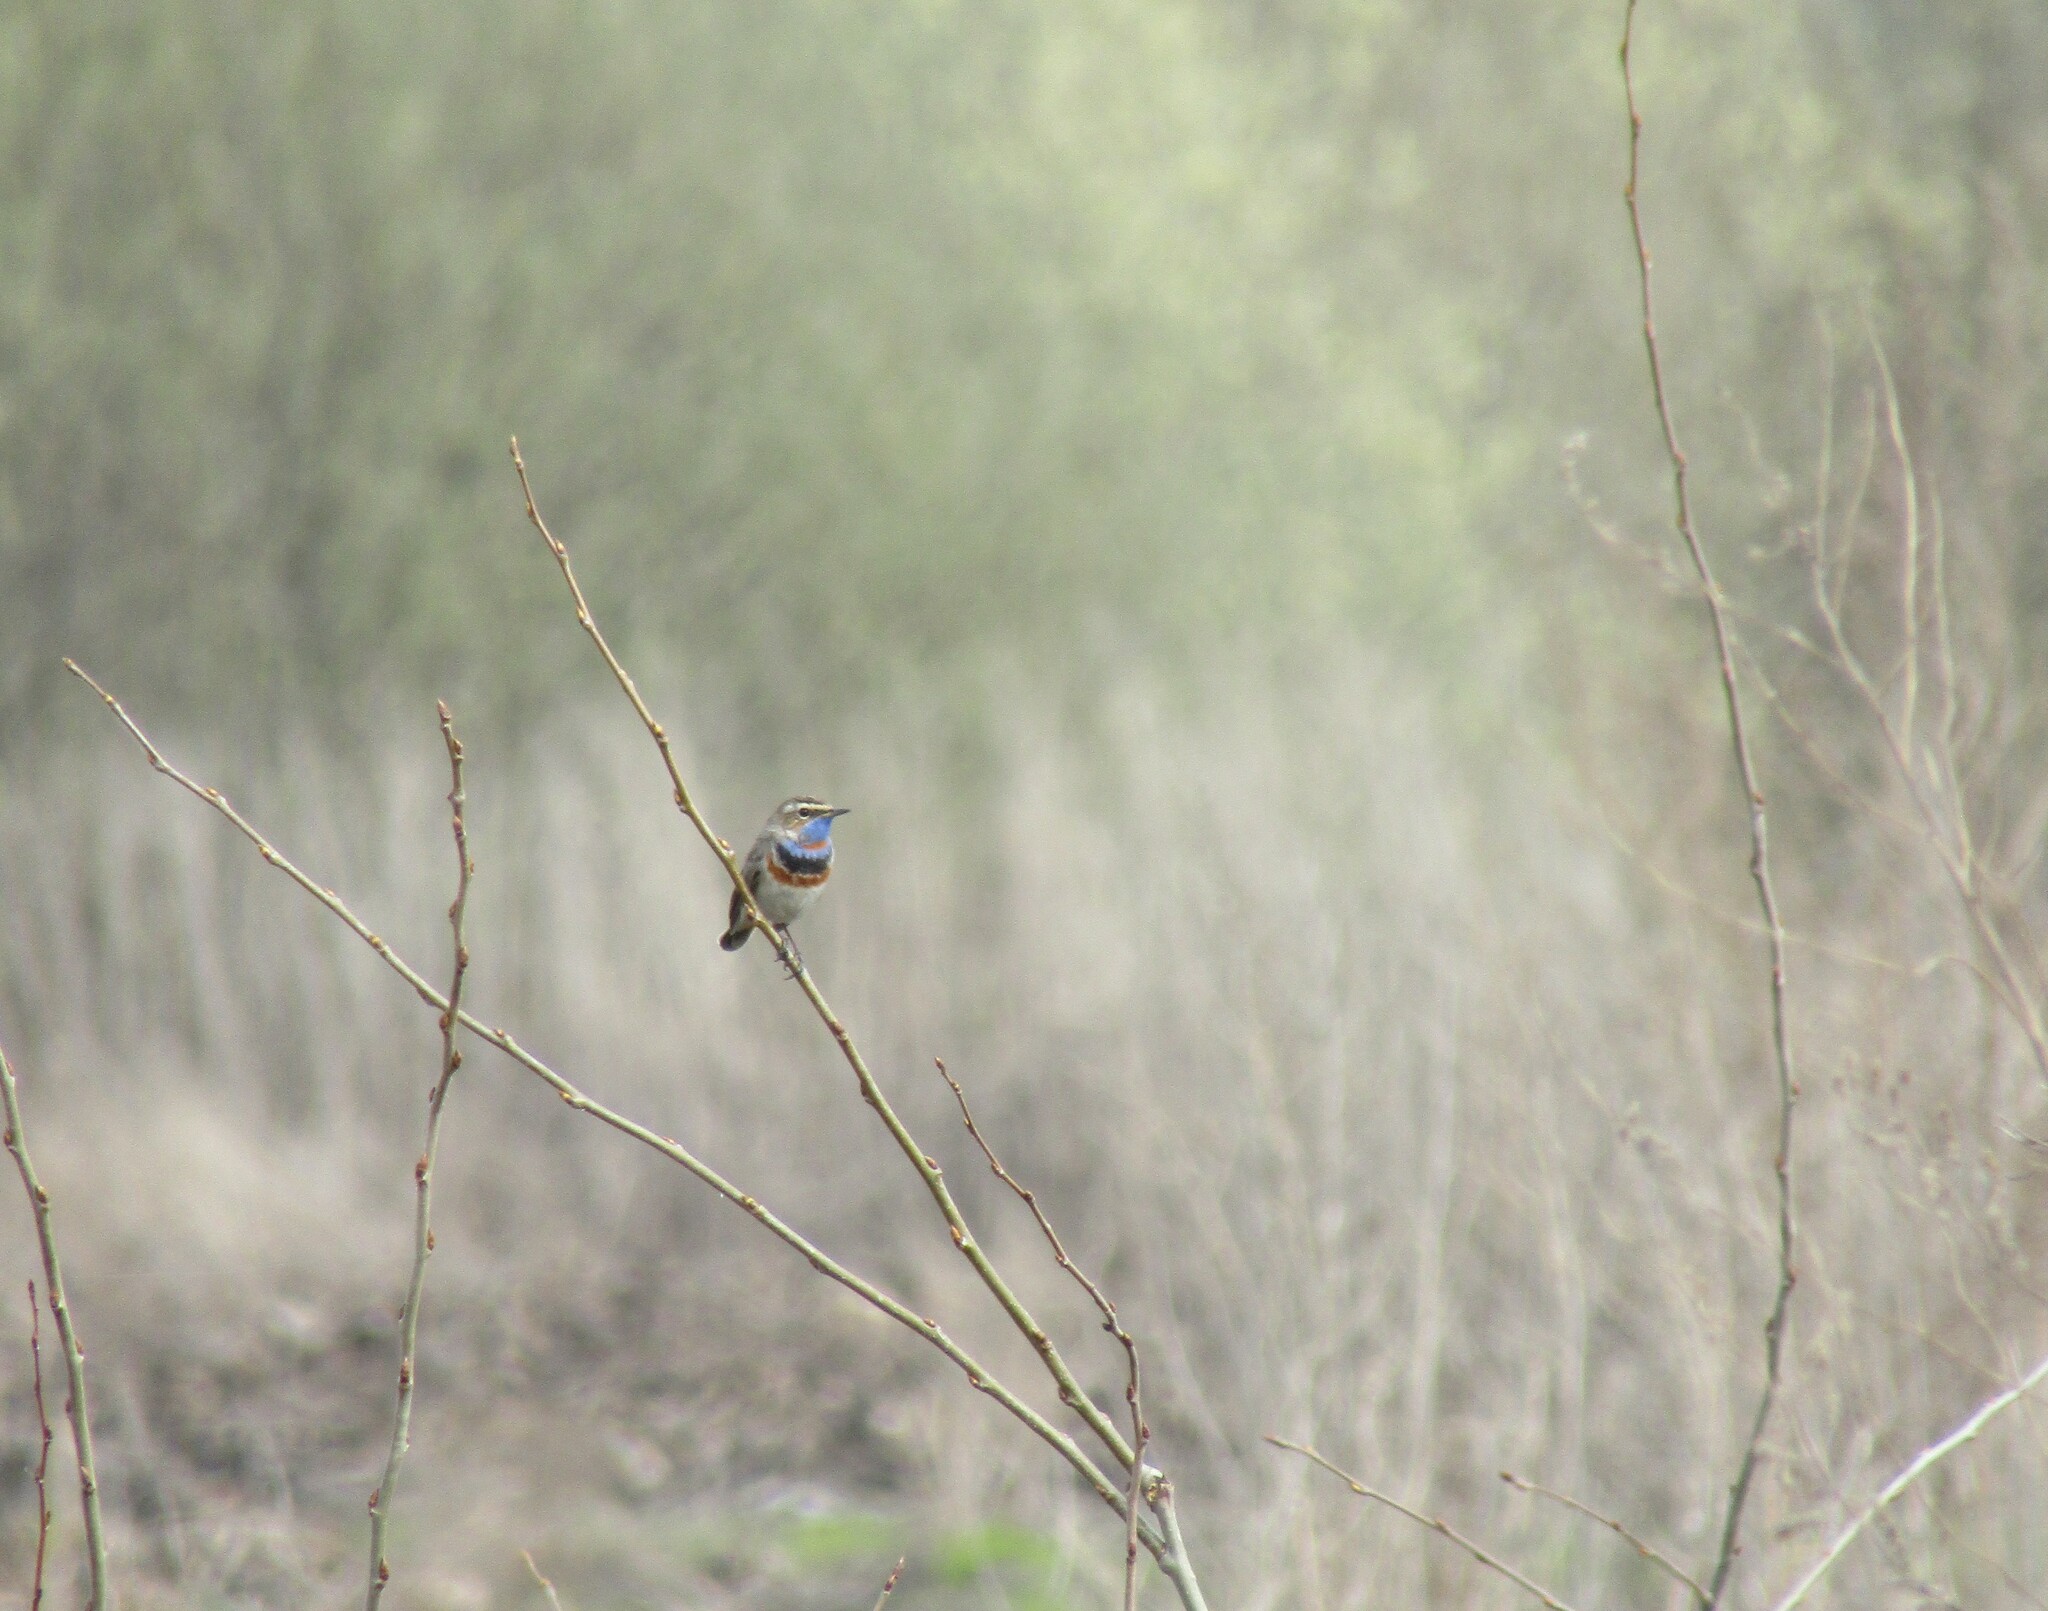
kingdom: Animalia
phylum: Chordata
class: Aves
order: Passeriformes
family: Muscicapidae
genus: Luscinia
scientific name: Luscinia svecica
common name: Bluethroat
